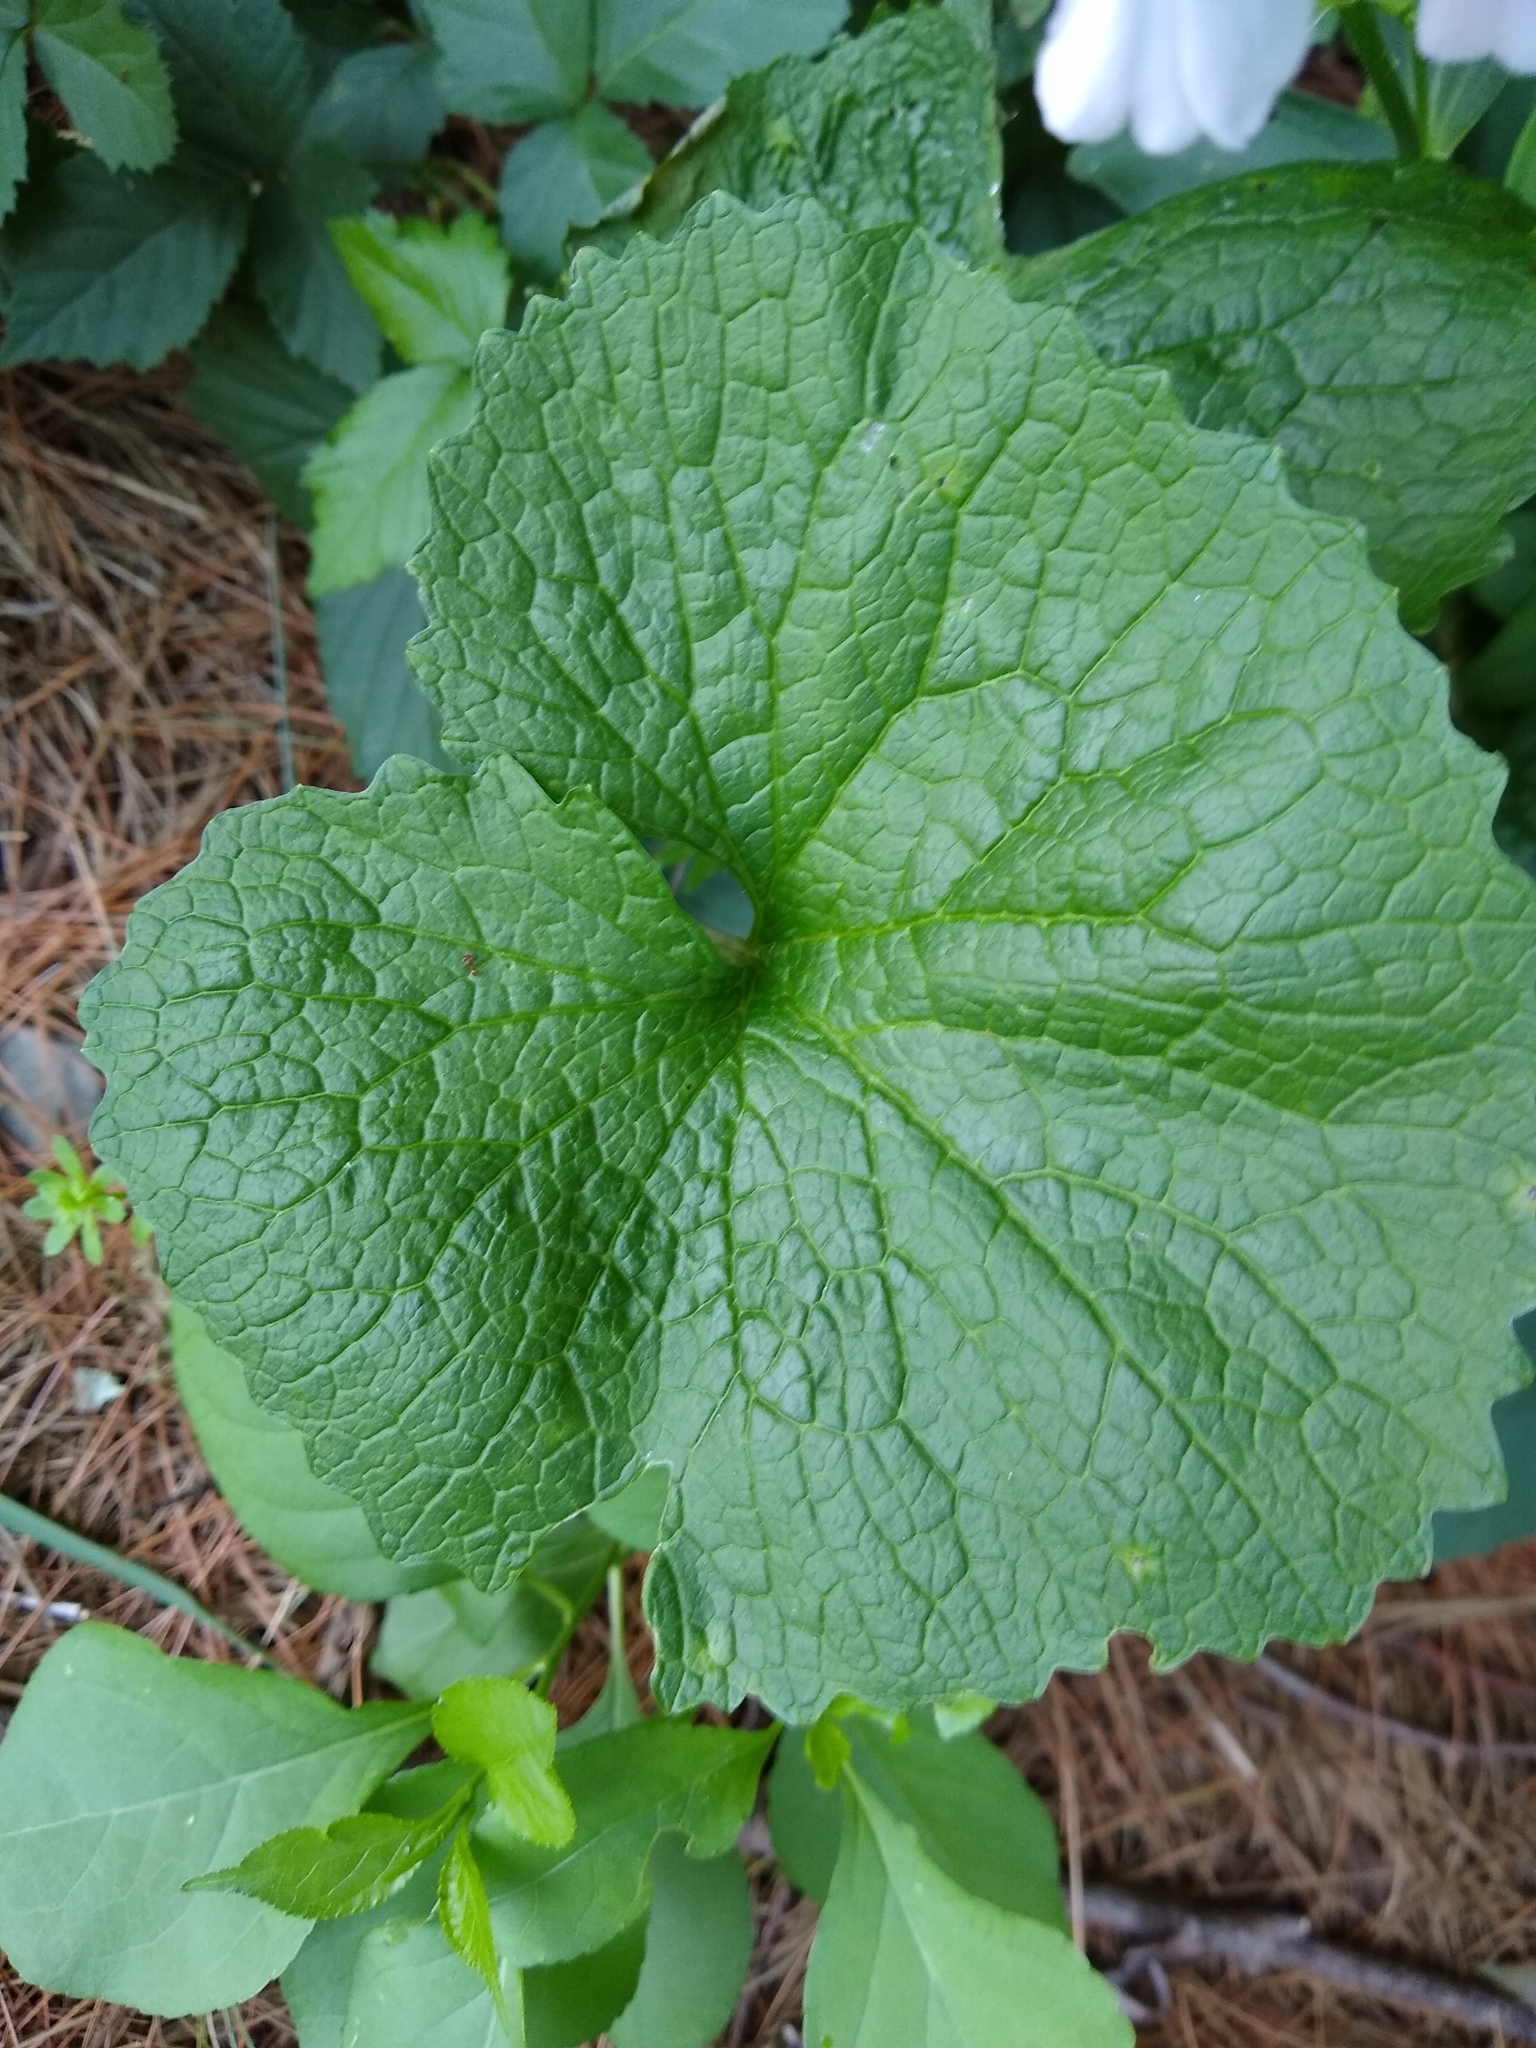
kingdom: Plantae
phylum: Tracheophyta
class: Magnoliopsida
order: Brassicales
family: Brassicaceae
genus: Alliaria
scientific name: Alliaria petiolata
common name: Garlic mustard
